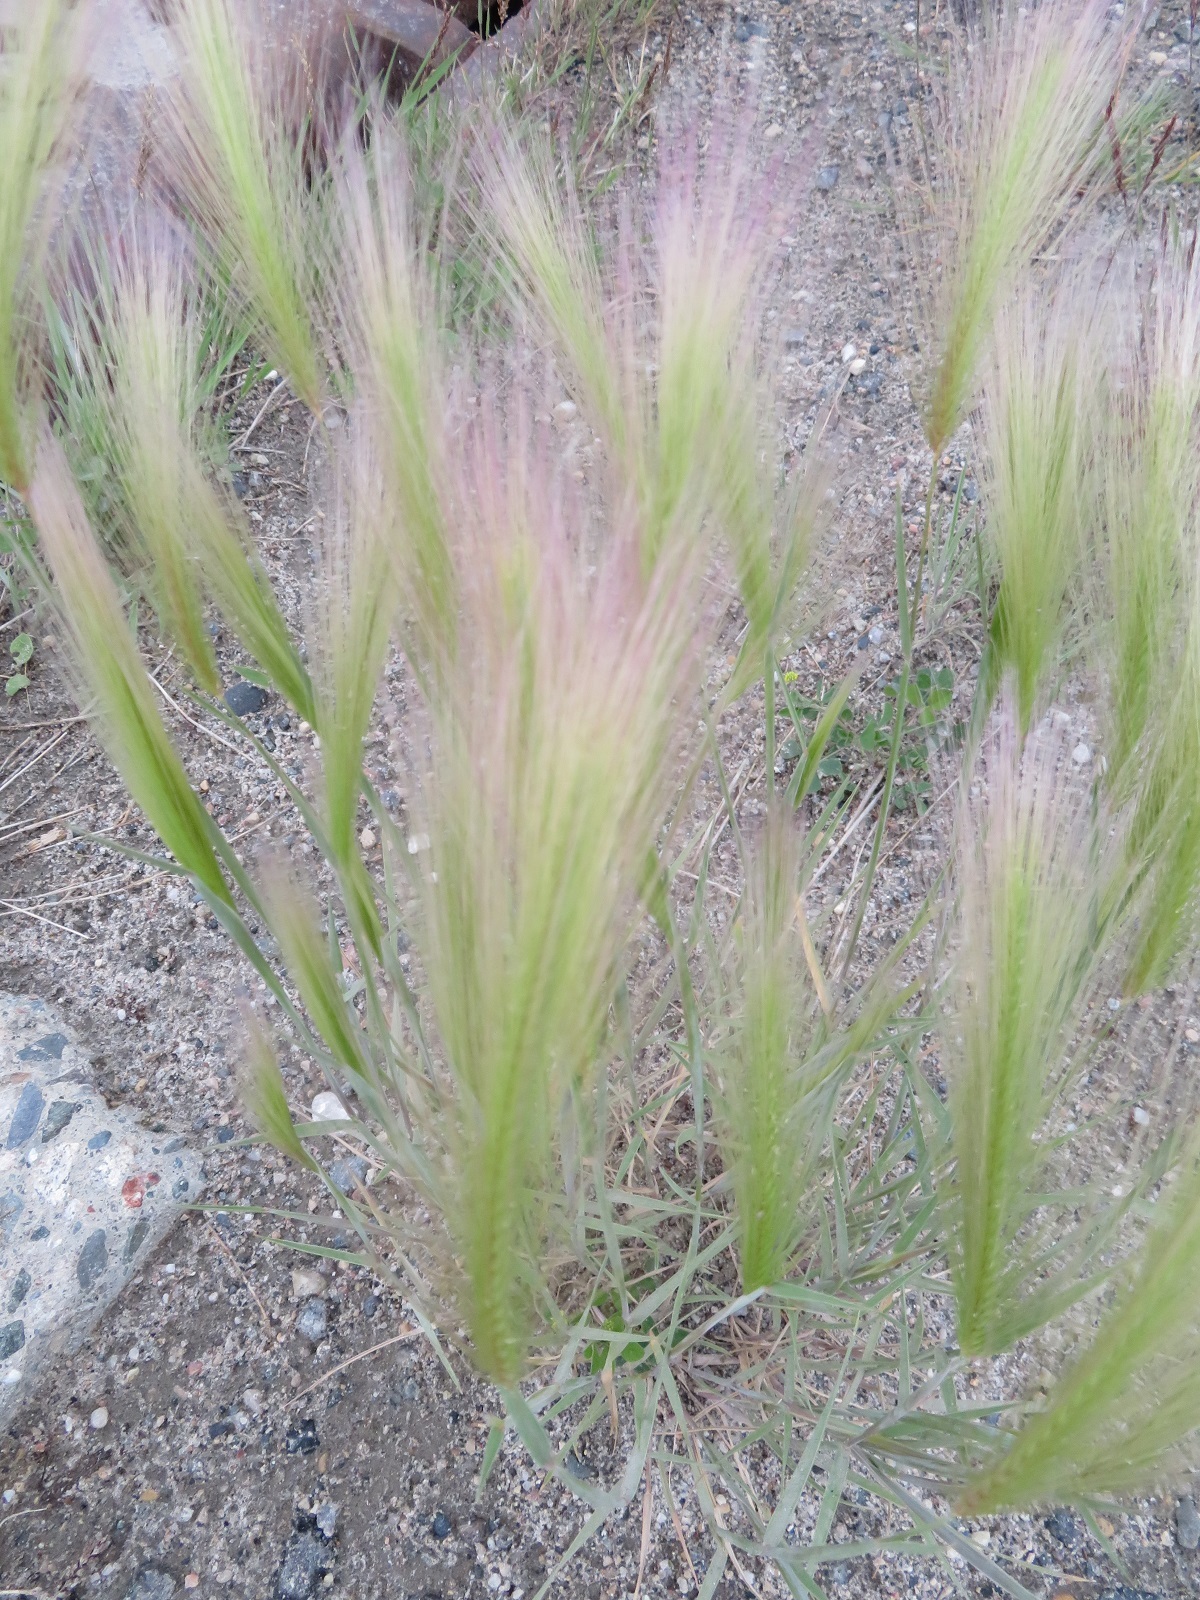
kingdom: Plantae
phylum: Tracheophyta
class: Liliopsida
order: Poales
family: Poaceae
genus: Hordeum
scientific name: Hordeum jubatum
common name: Foxtail barley
